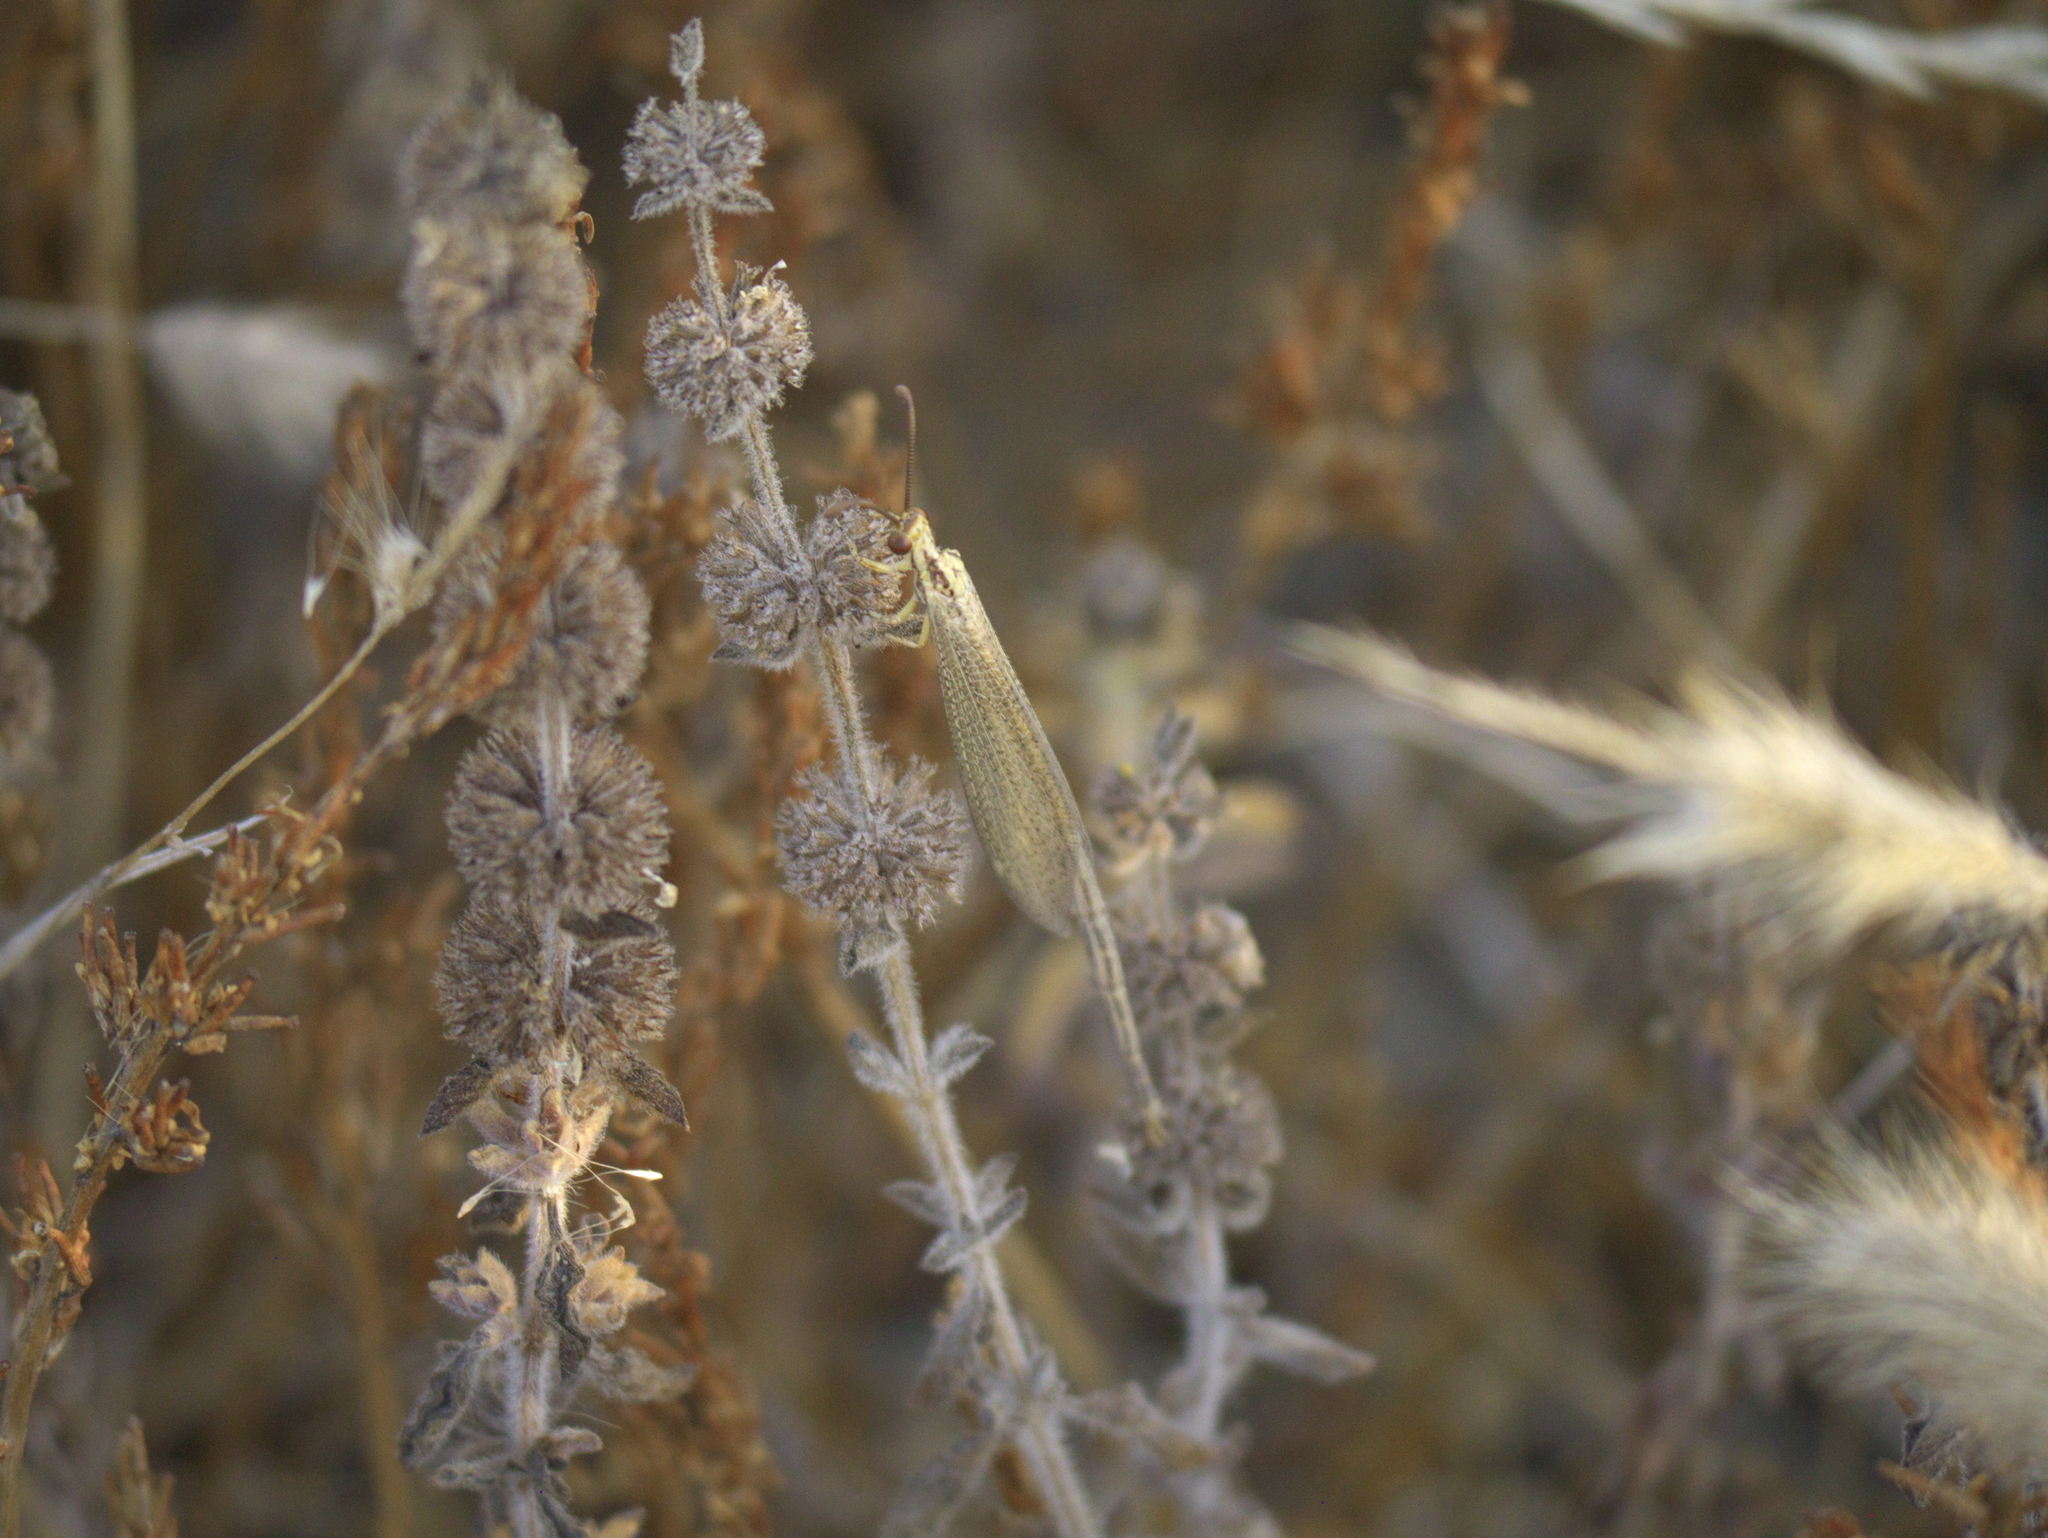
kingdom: Plantae
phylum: Tracheophyta
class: Magnoliopsida
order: Lamiales
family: Lamiaceae
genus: Mentha
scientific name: Mentha pulegium
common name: Pennyroyal
